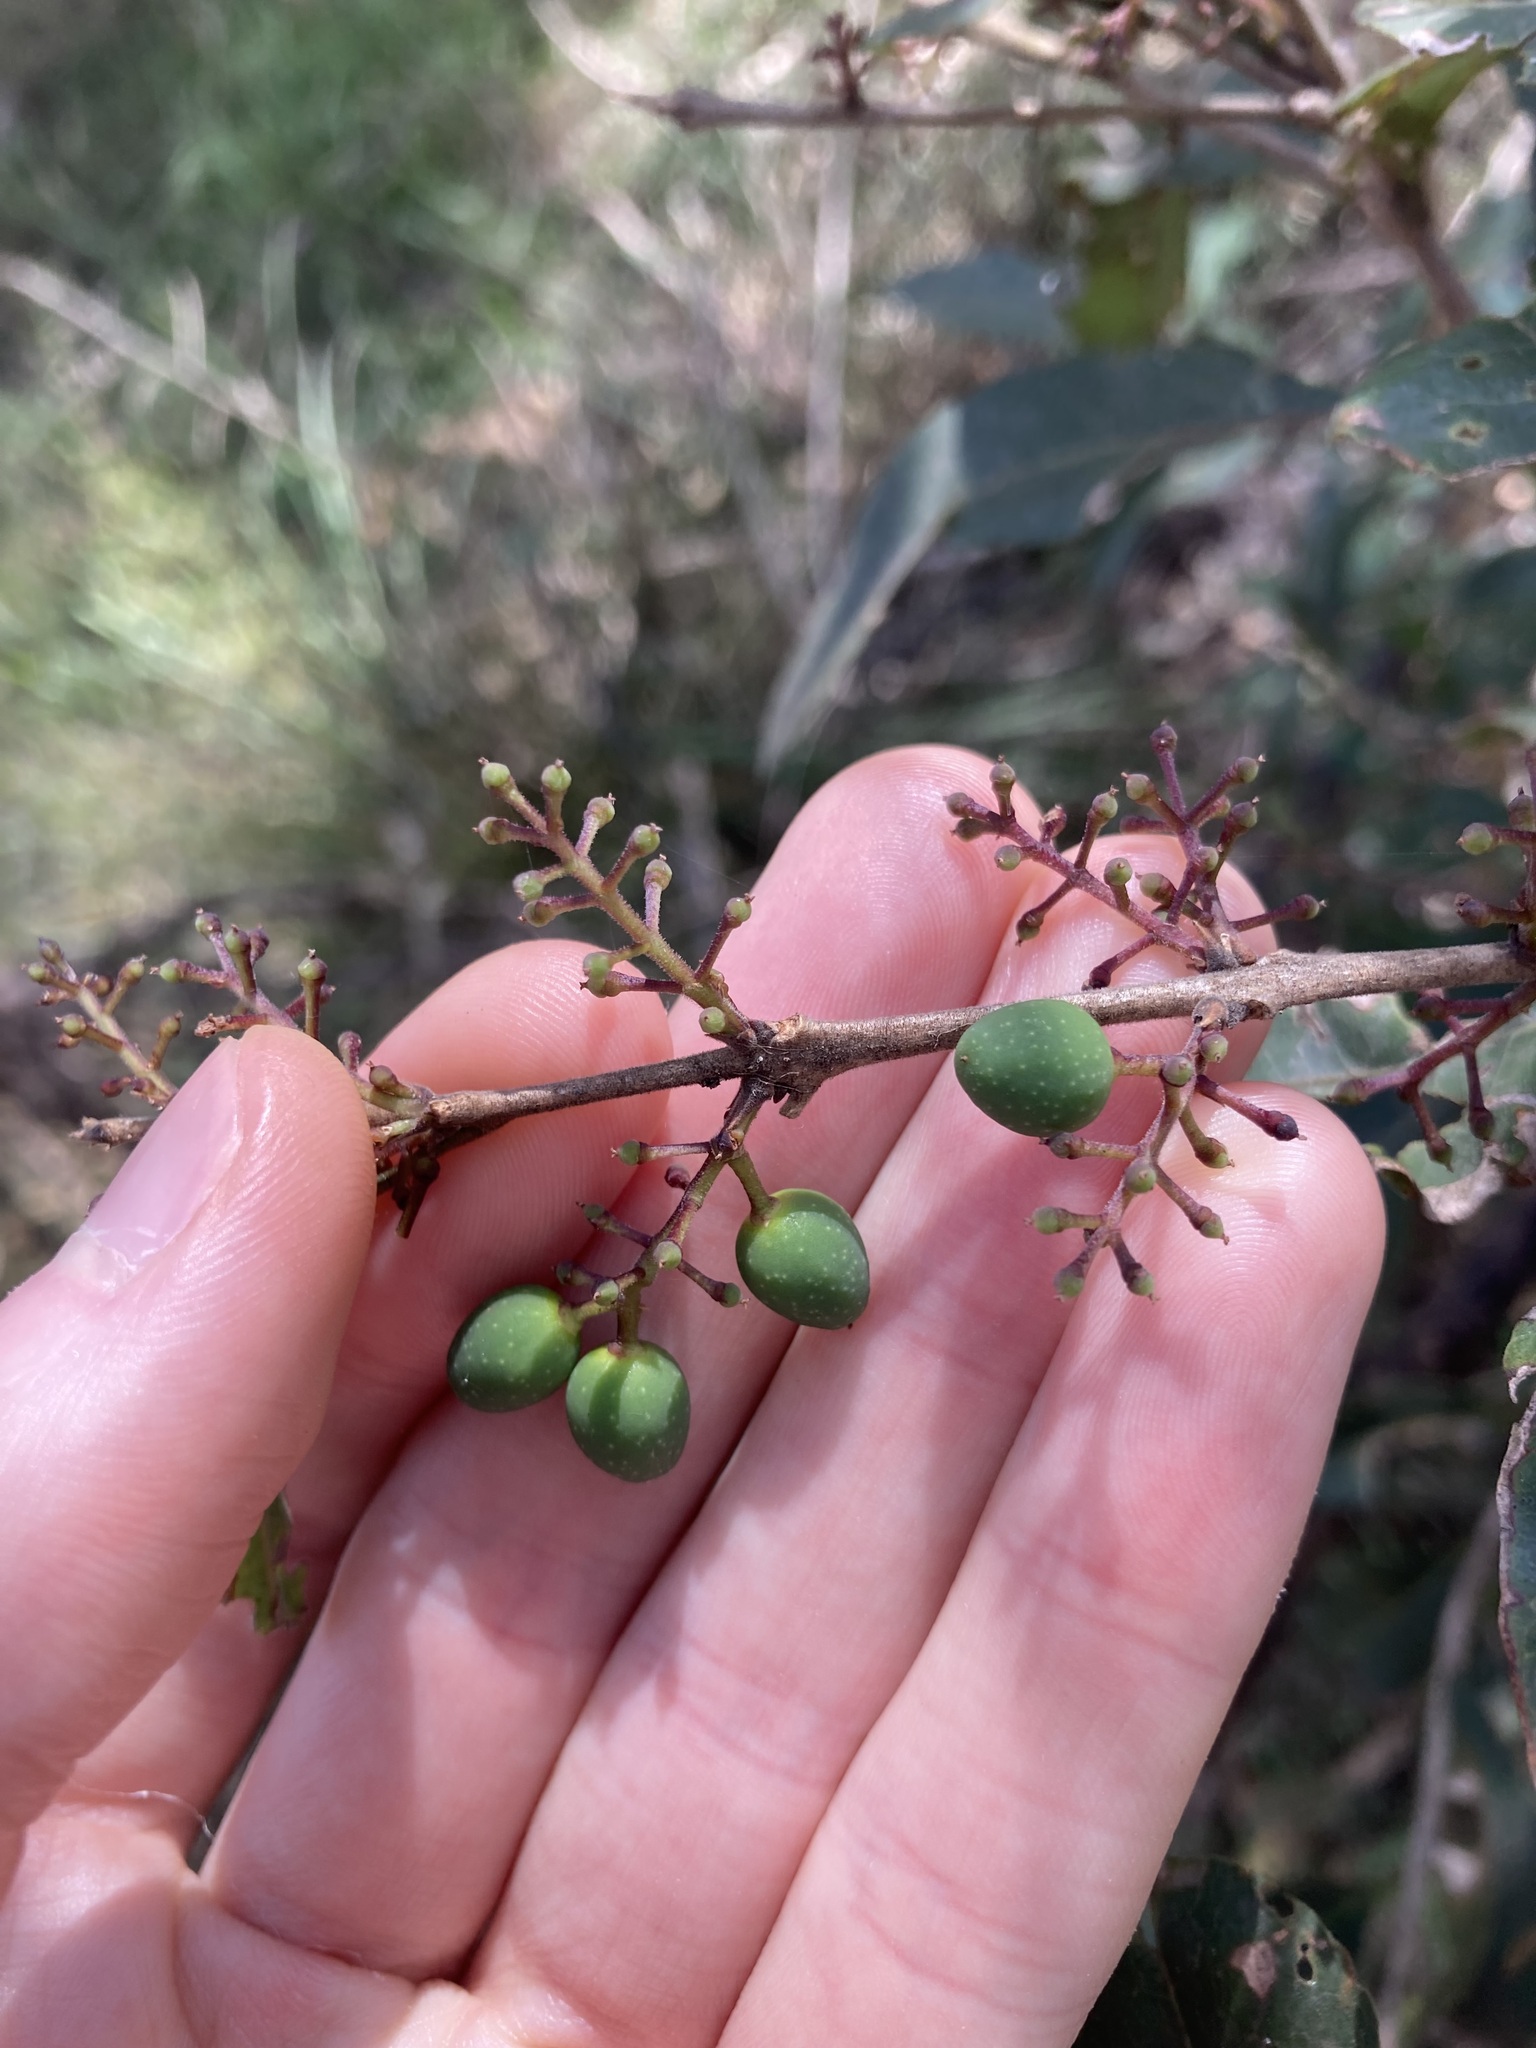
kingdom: Plantae
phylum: Tracheophyta
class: Magnoliopsida
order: Lamiales
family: Oleaceae
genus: Notelaea
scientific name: Notelaea longifolia
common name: Large mock olive
